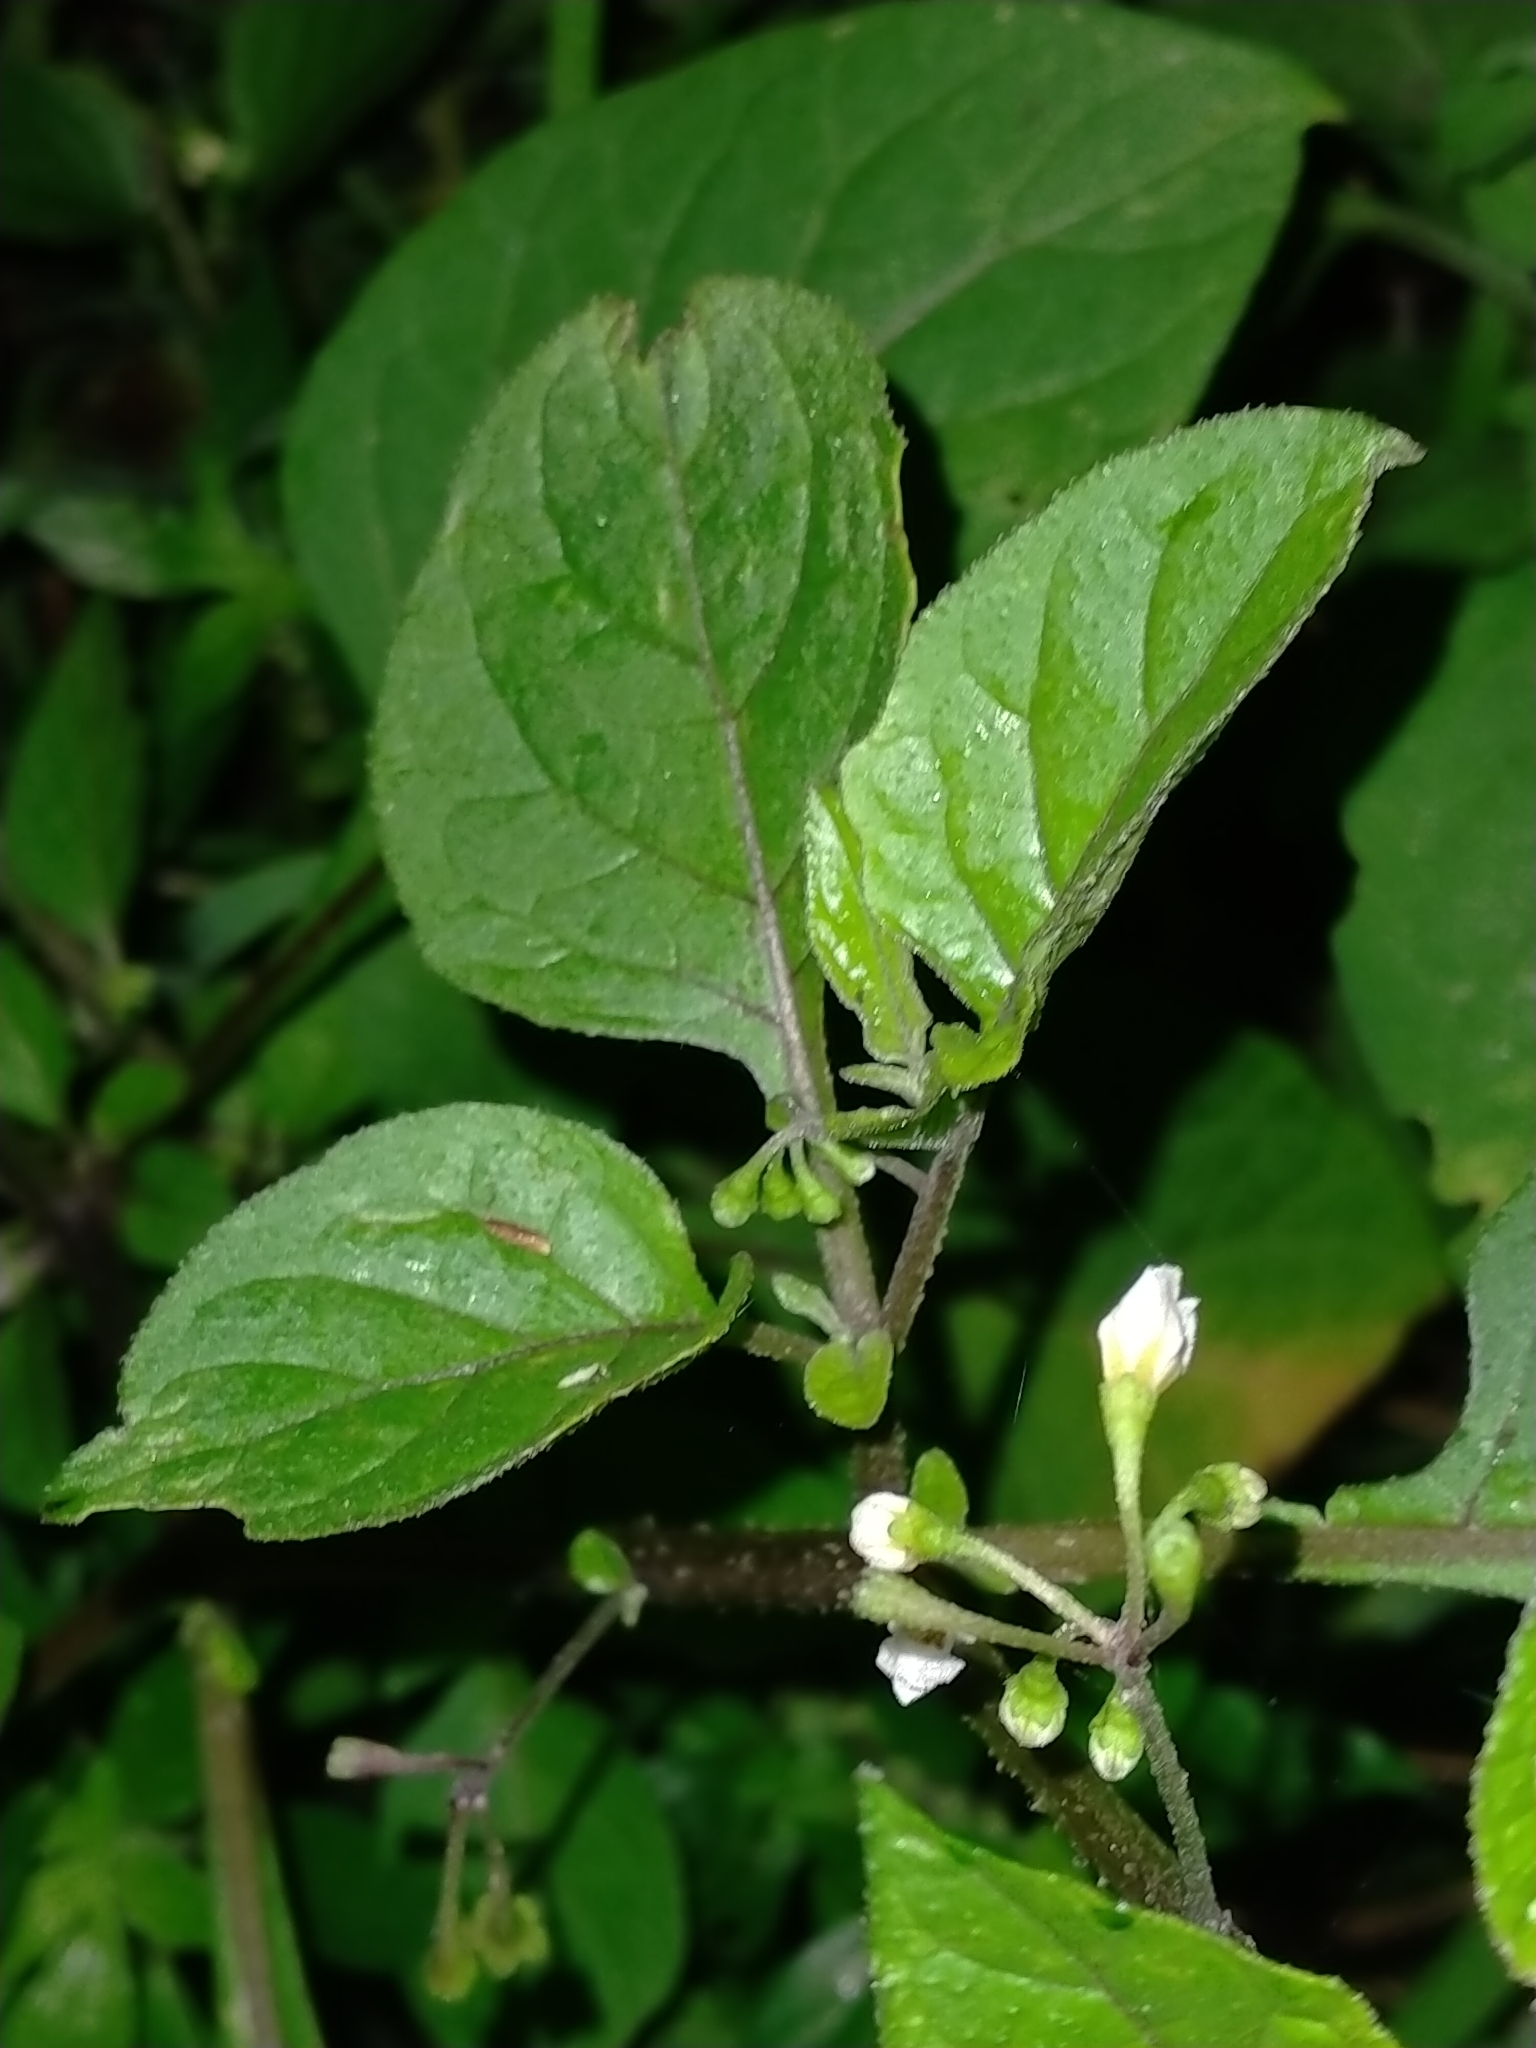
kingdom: Plantae
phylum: Tracheophyta
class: Magnoliopsida
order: Solanales
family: Solanaceae
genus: Solanum
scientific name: Solanum nigrum
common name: Black nightshade
